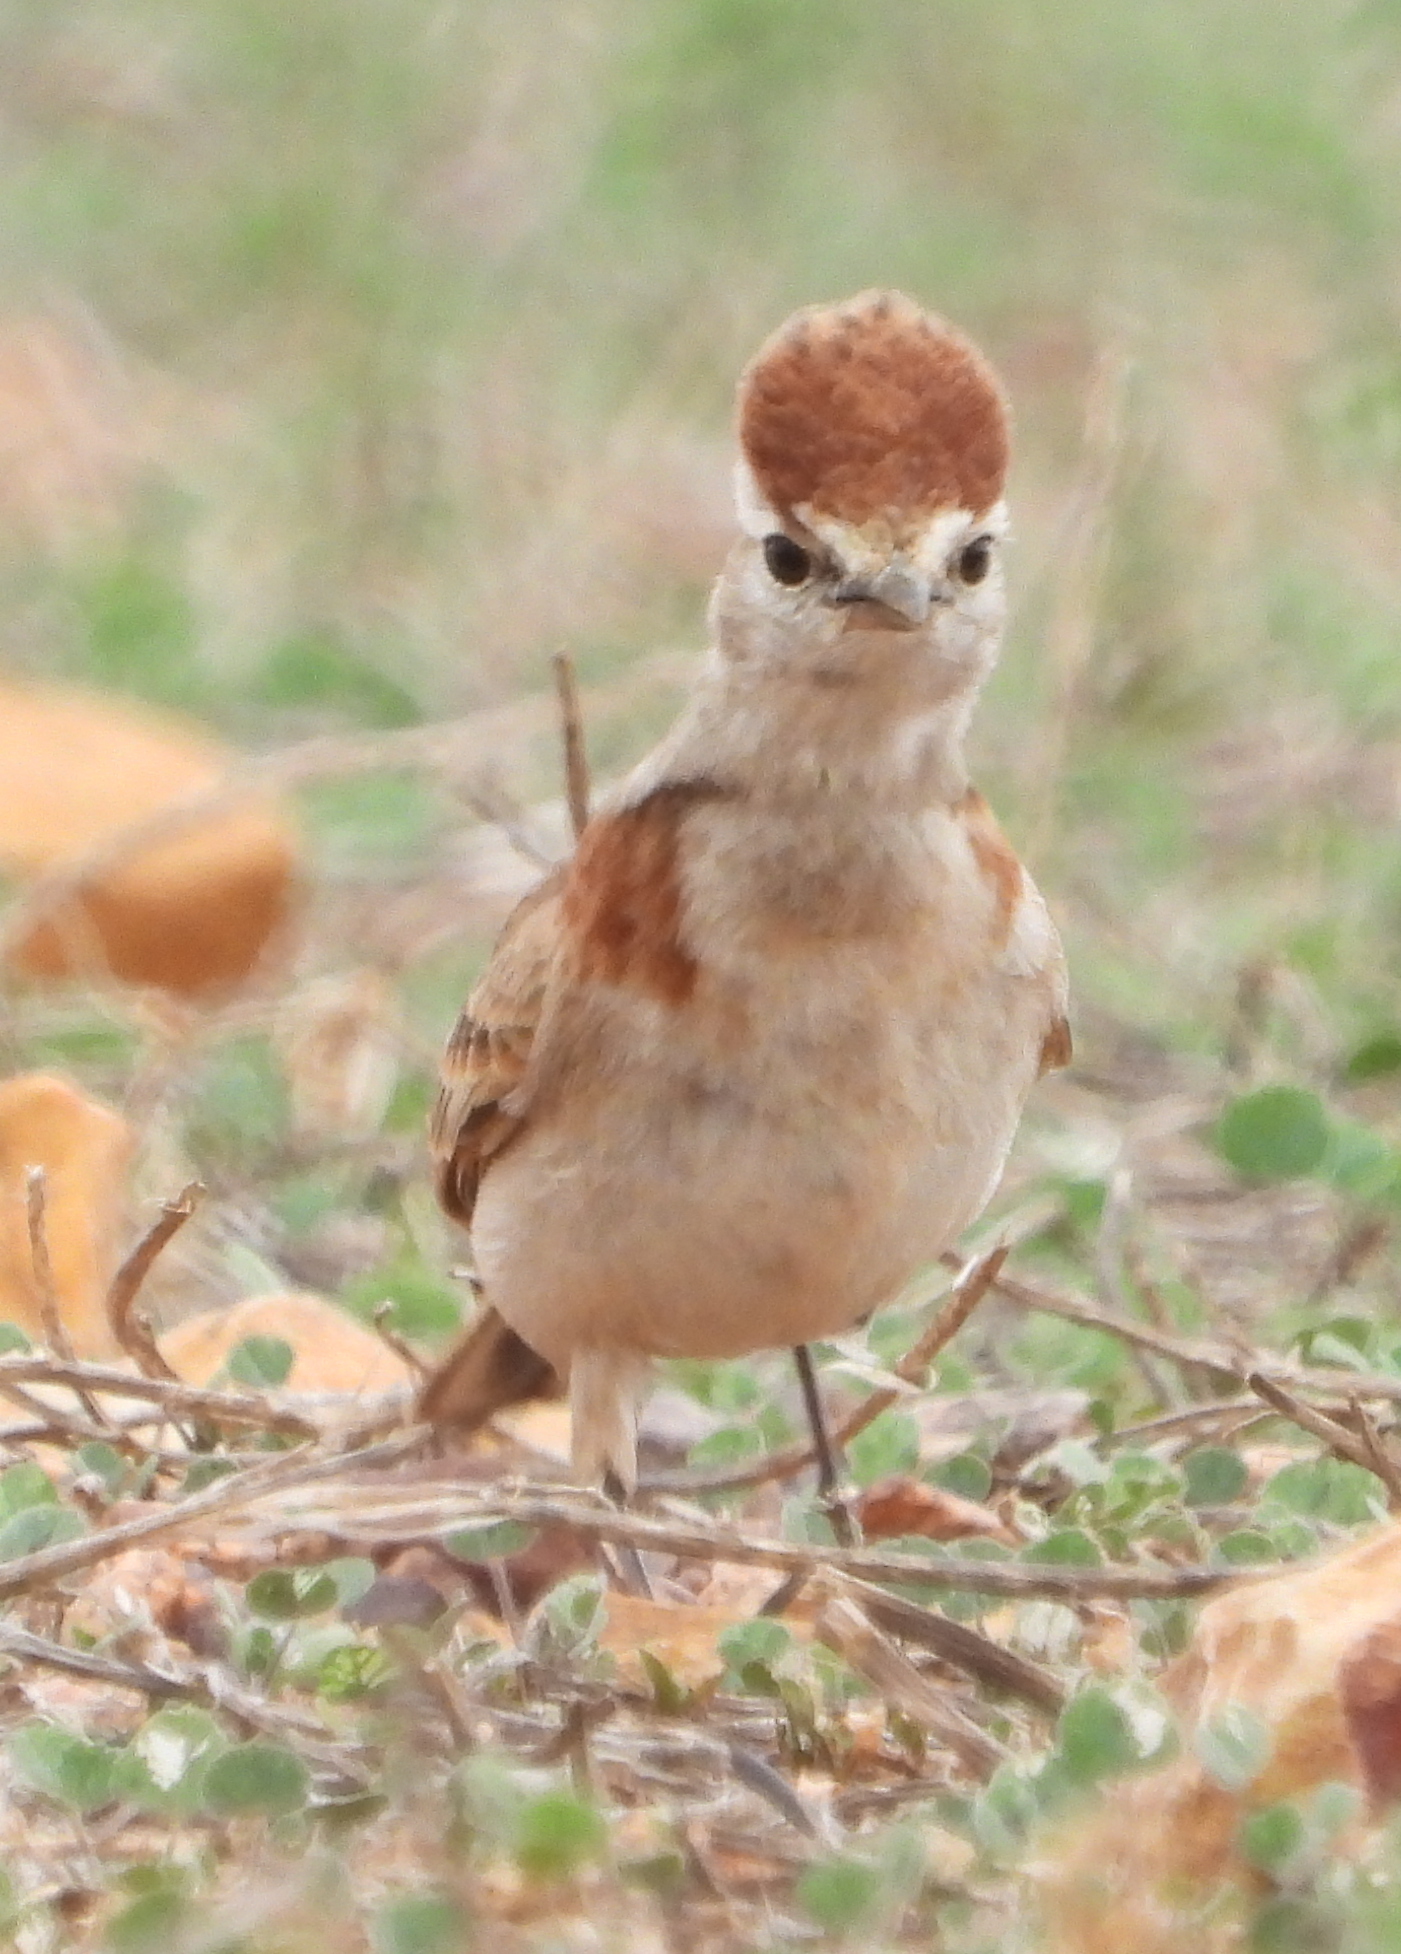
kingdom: Animalia
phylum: Chordata
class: Aves
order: Passeriformes
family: Alaudidae
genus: Calandrella
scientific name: Calandrella cinerea
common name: Red-capped lark
